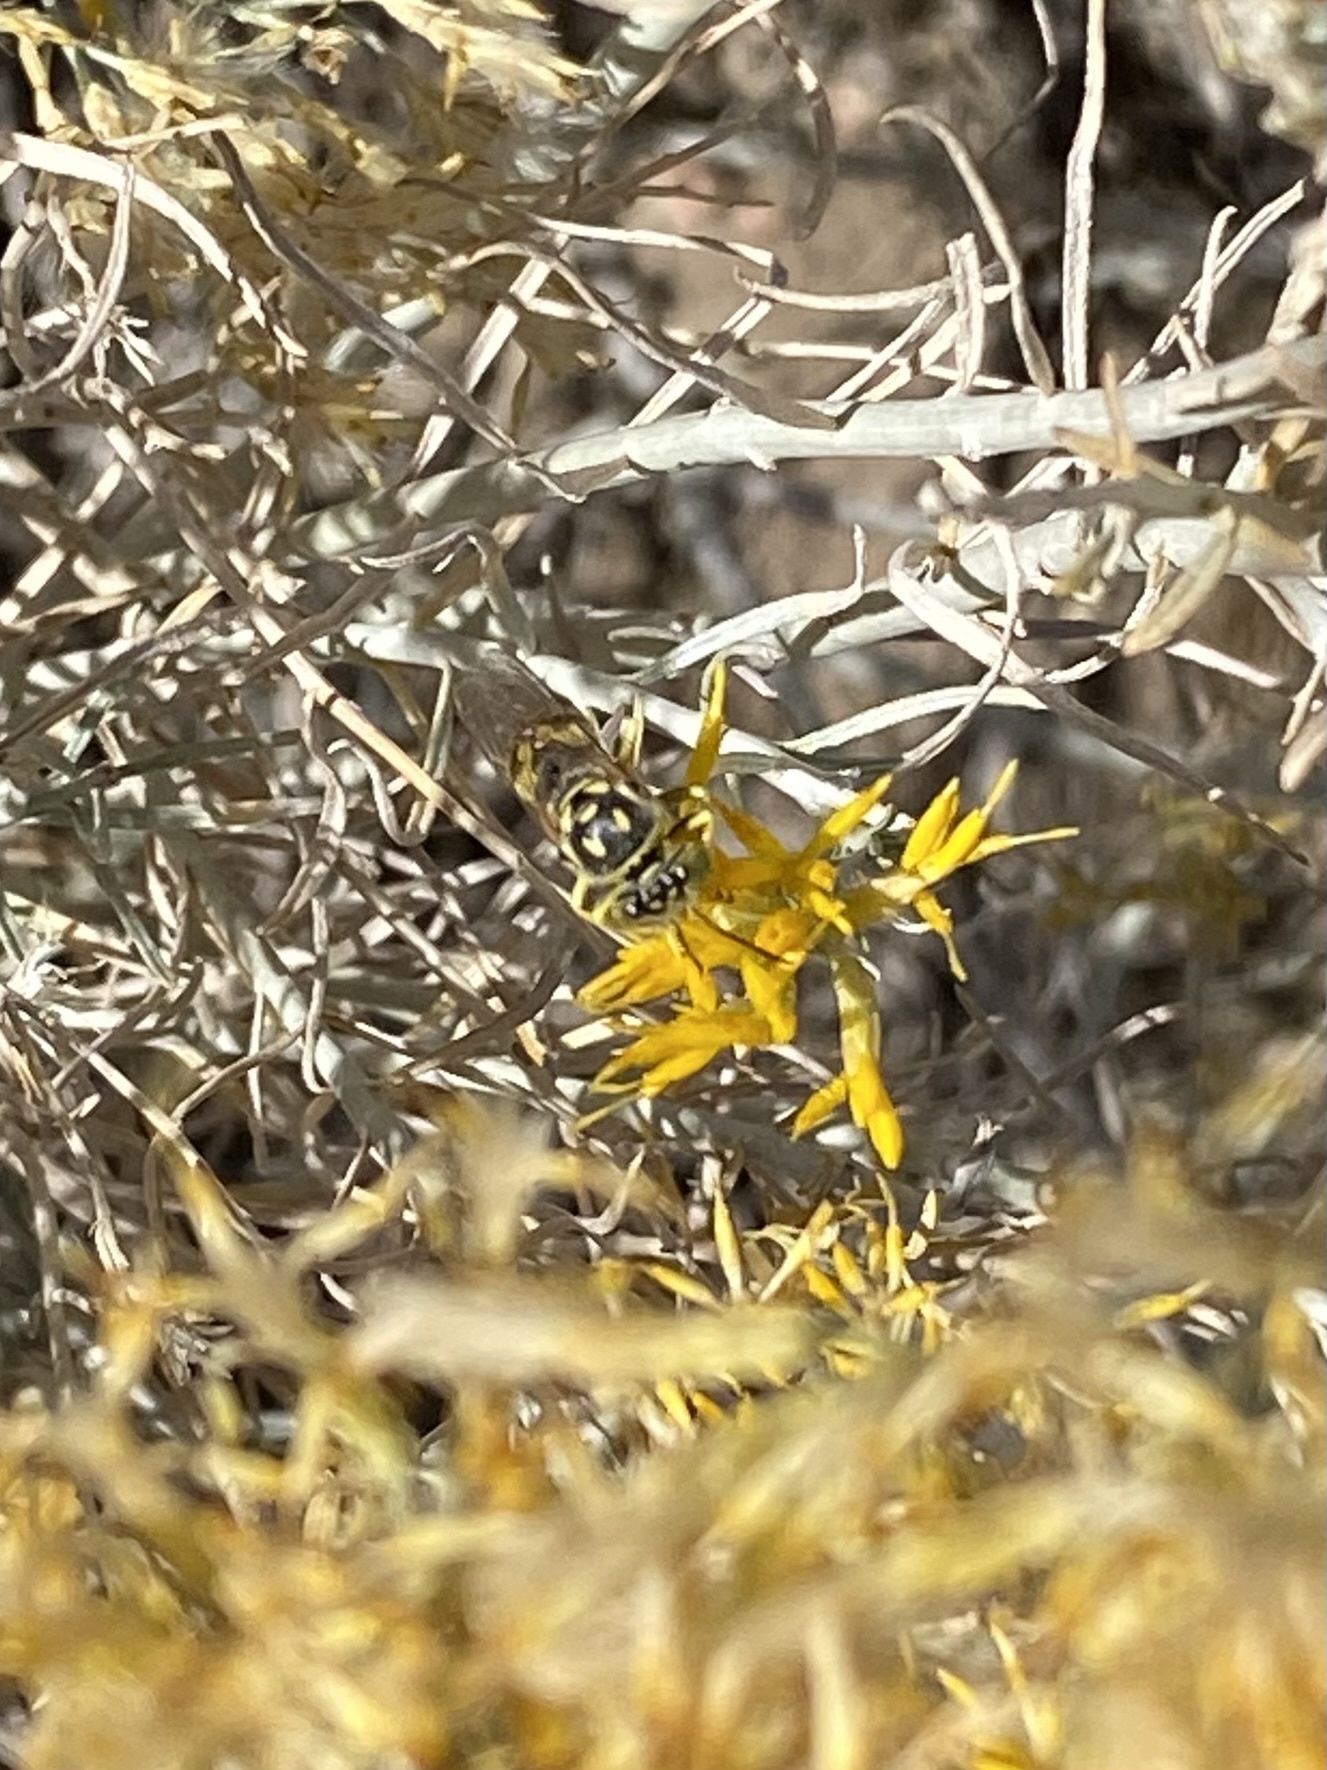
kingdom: Animalia
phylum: Arthropoda
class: Insecta
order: Hymenoptera
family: Crabronidae
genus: Steniolia
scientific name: Steniolia
